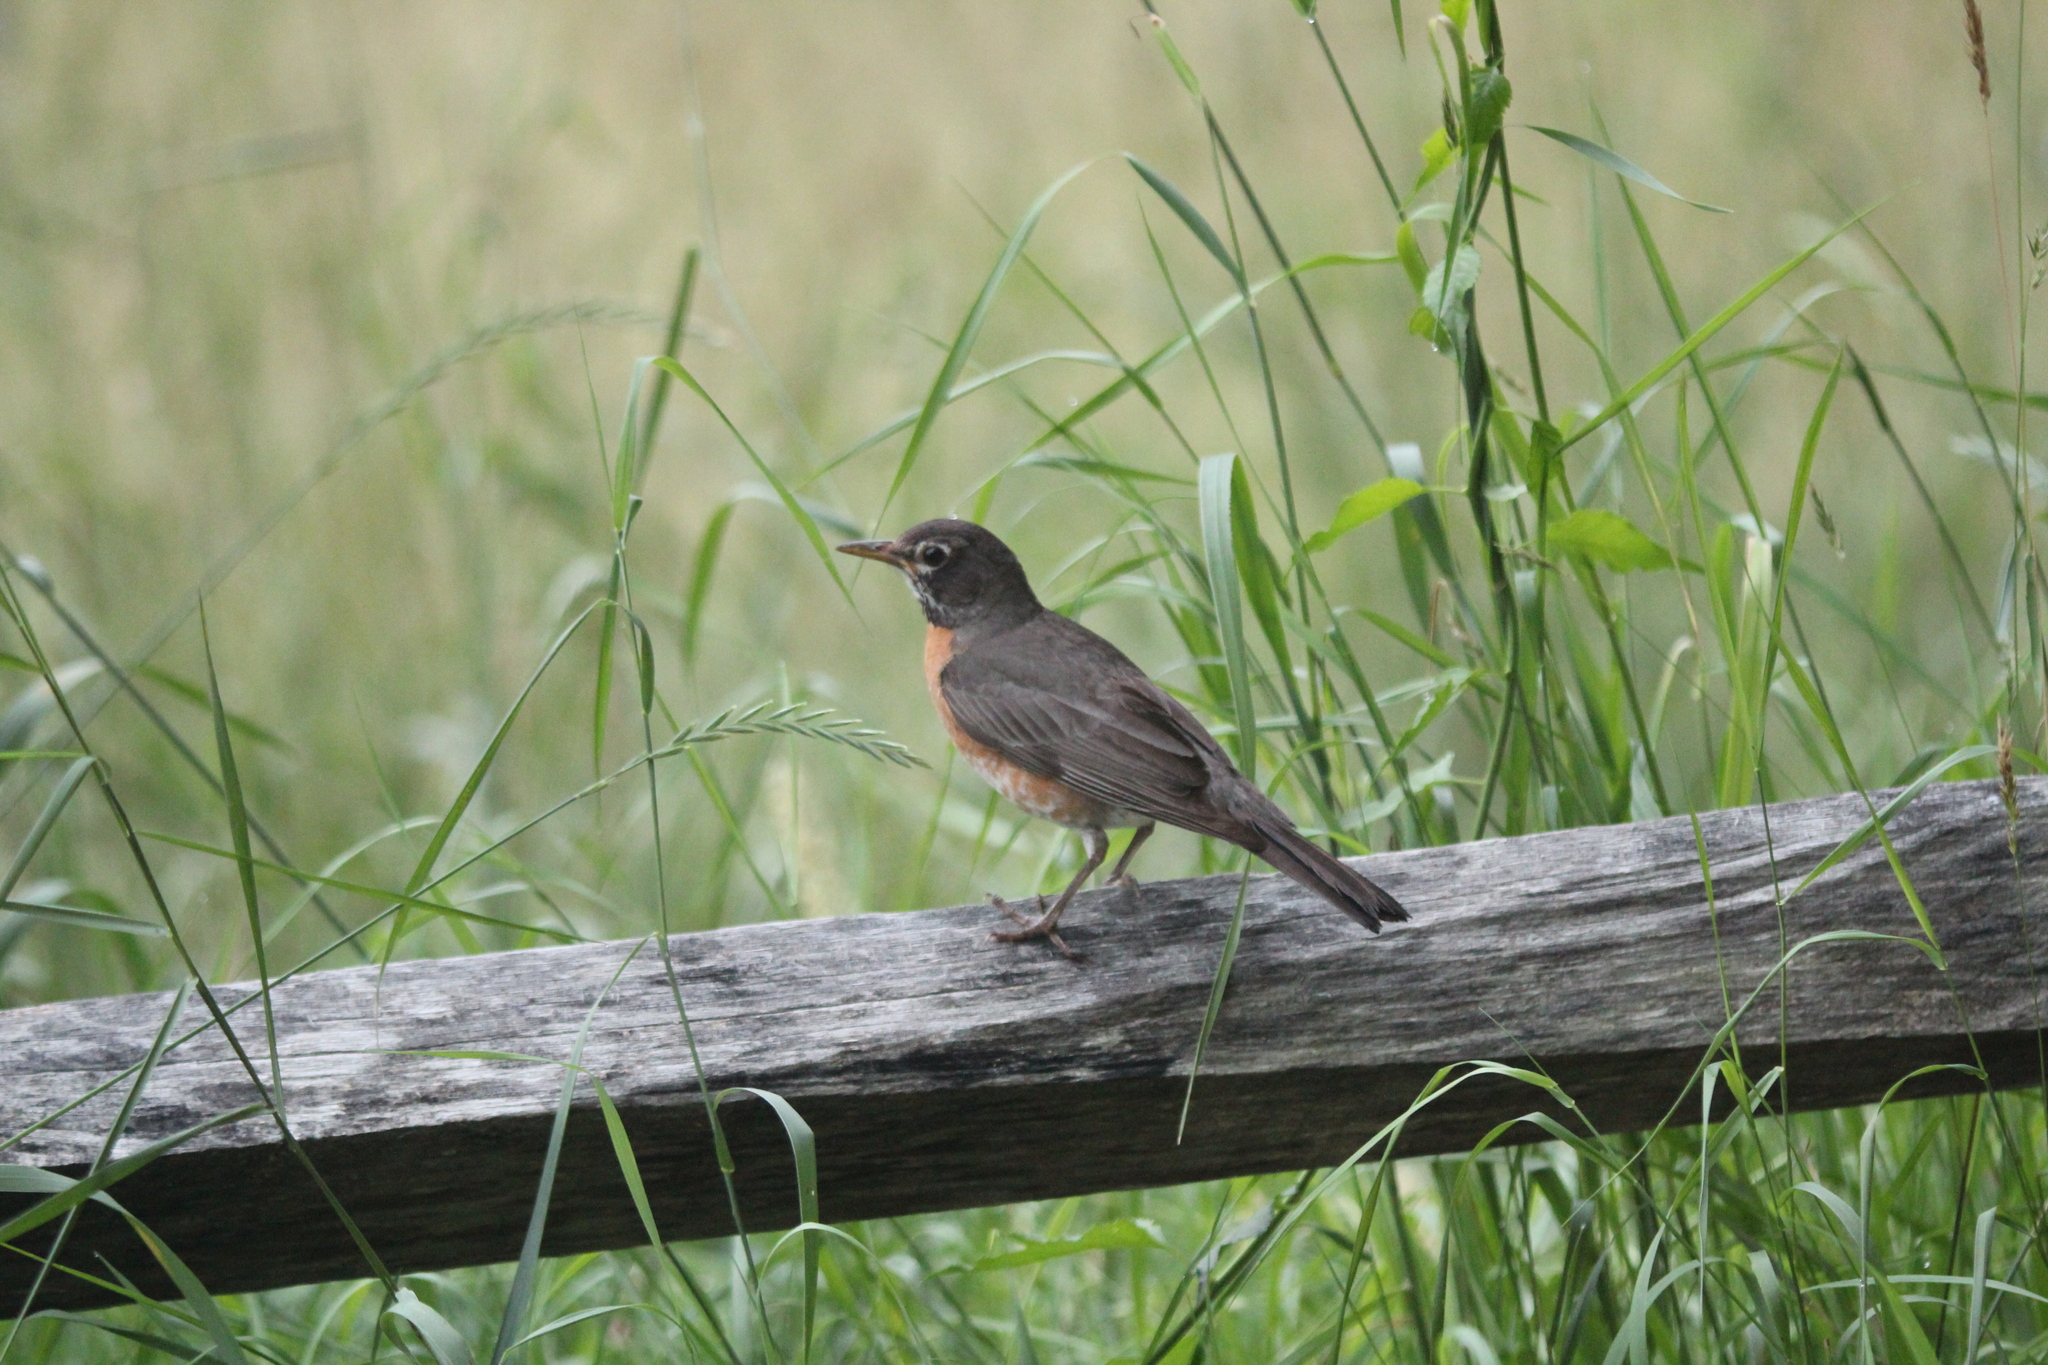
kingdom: Animalia
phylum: Chordata
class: Aves
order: Passeriformes
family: Turdidae
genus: Turdus
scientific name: Turdus migratorius
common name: American robin
